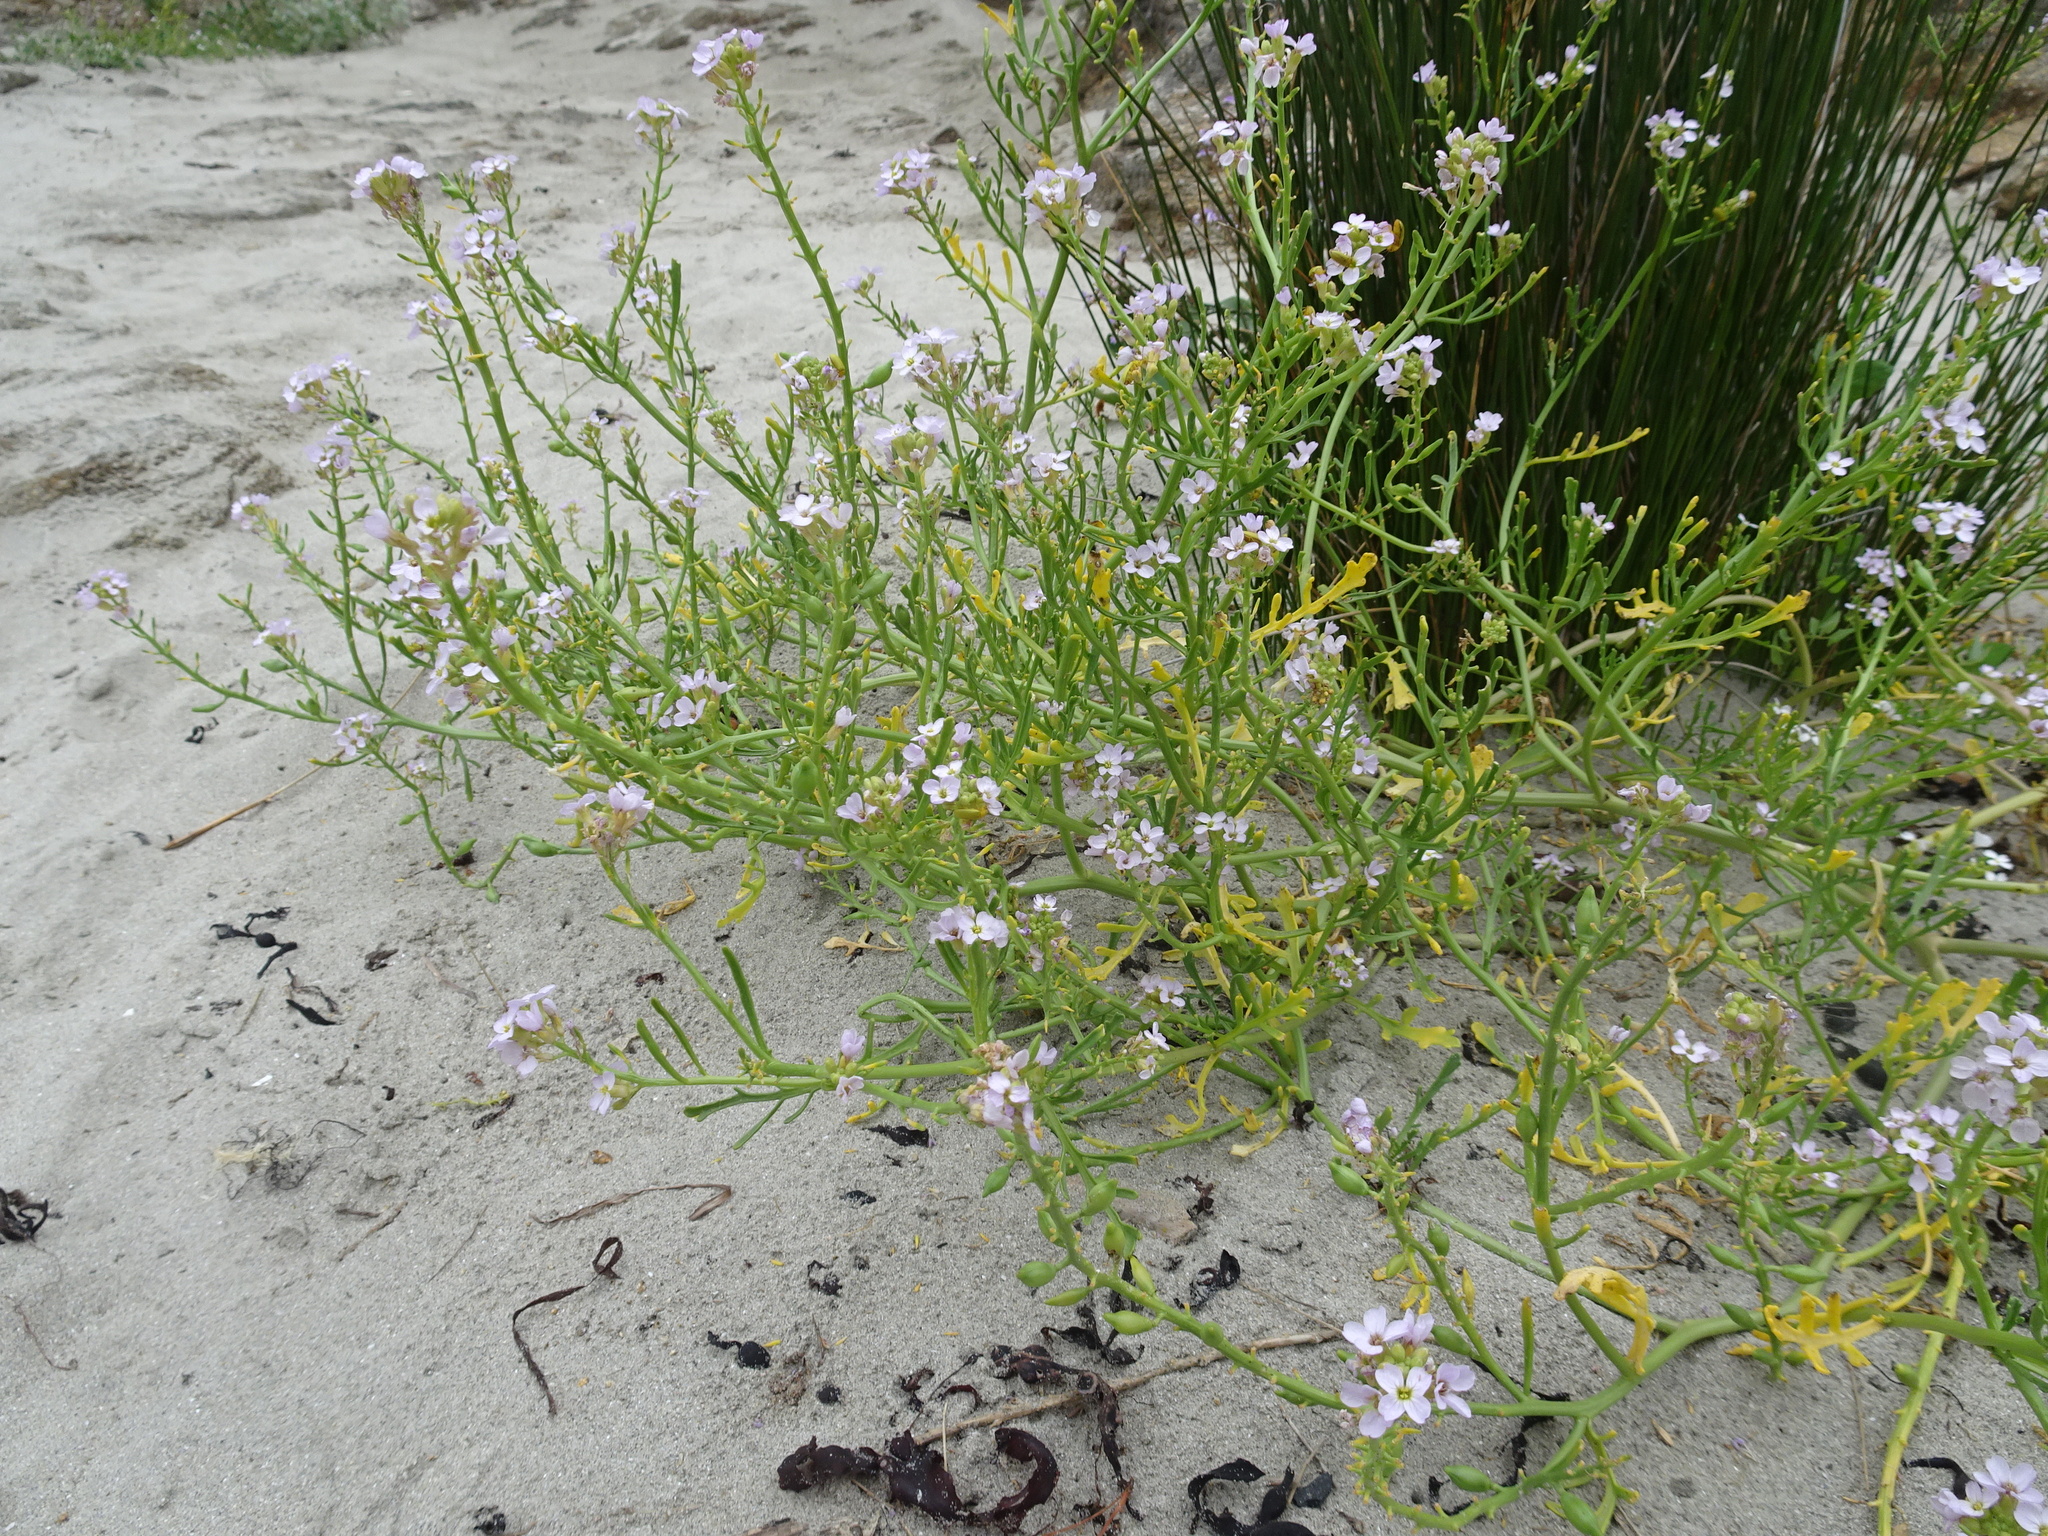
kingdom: Plantae
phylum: Tracheophyta
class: Magnoliopsida
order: Brassicales
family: Brassicaceae
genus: Cakile
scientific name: Cakile maritima
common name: Sea rocket
